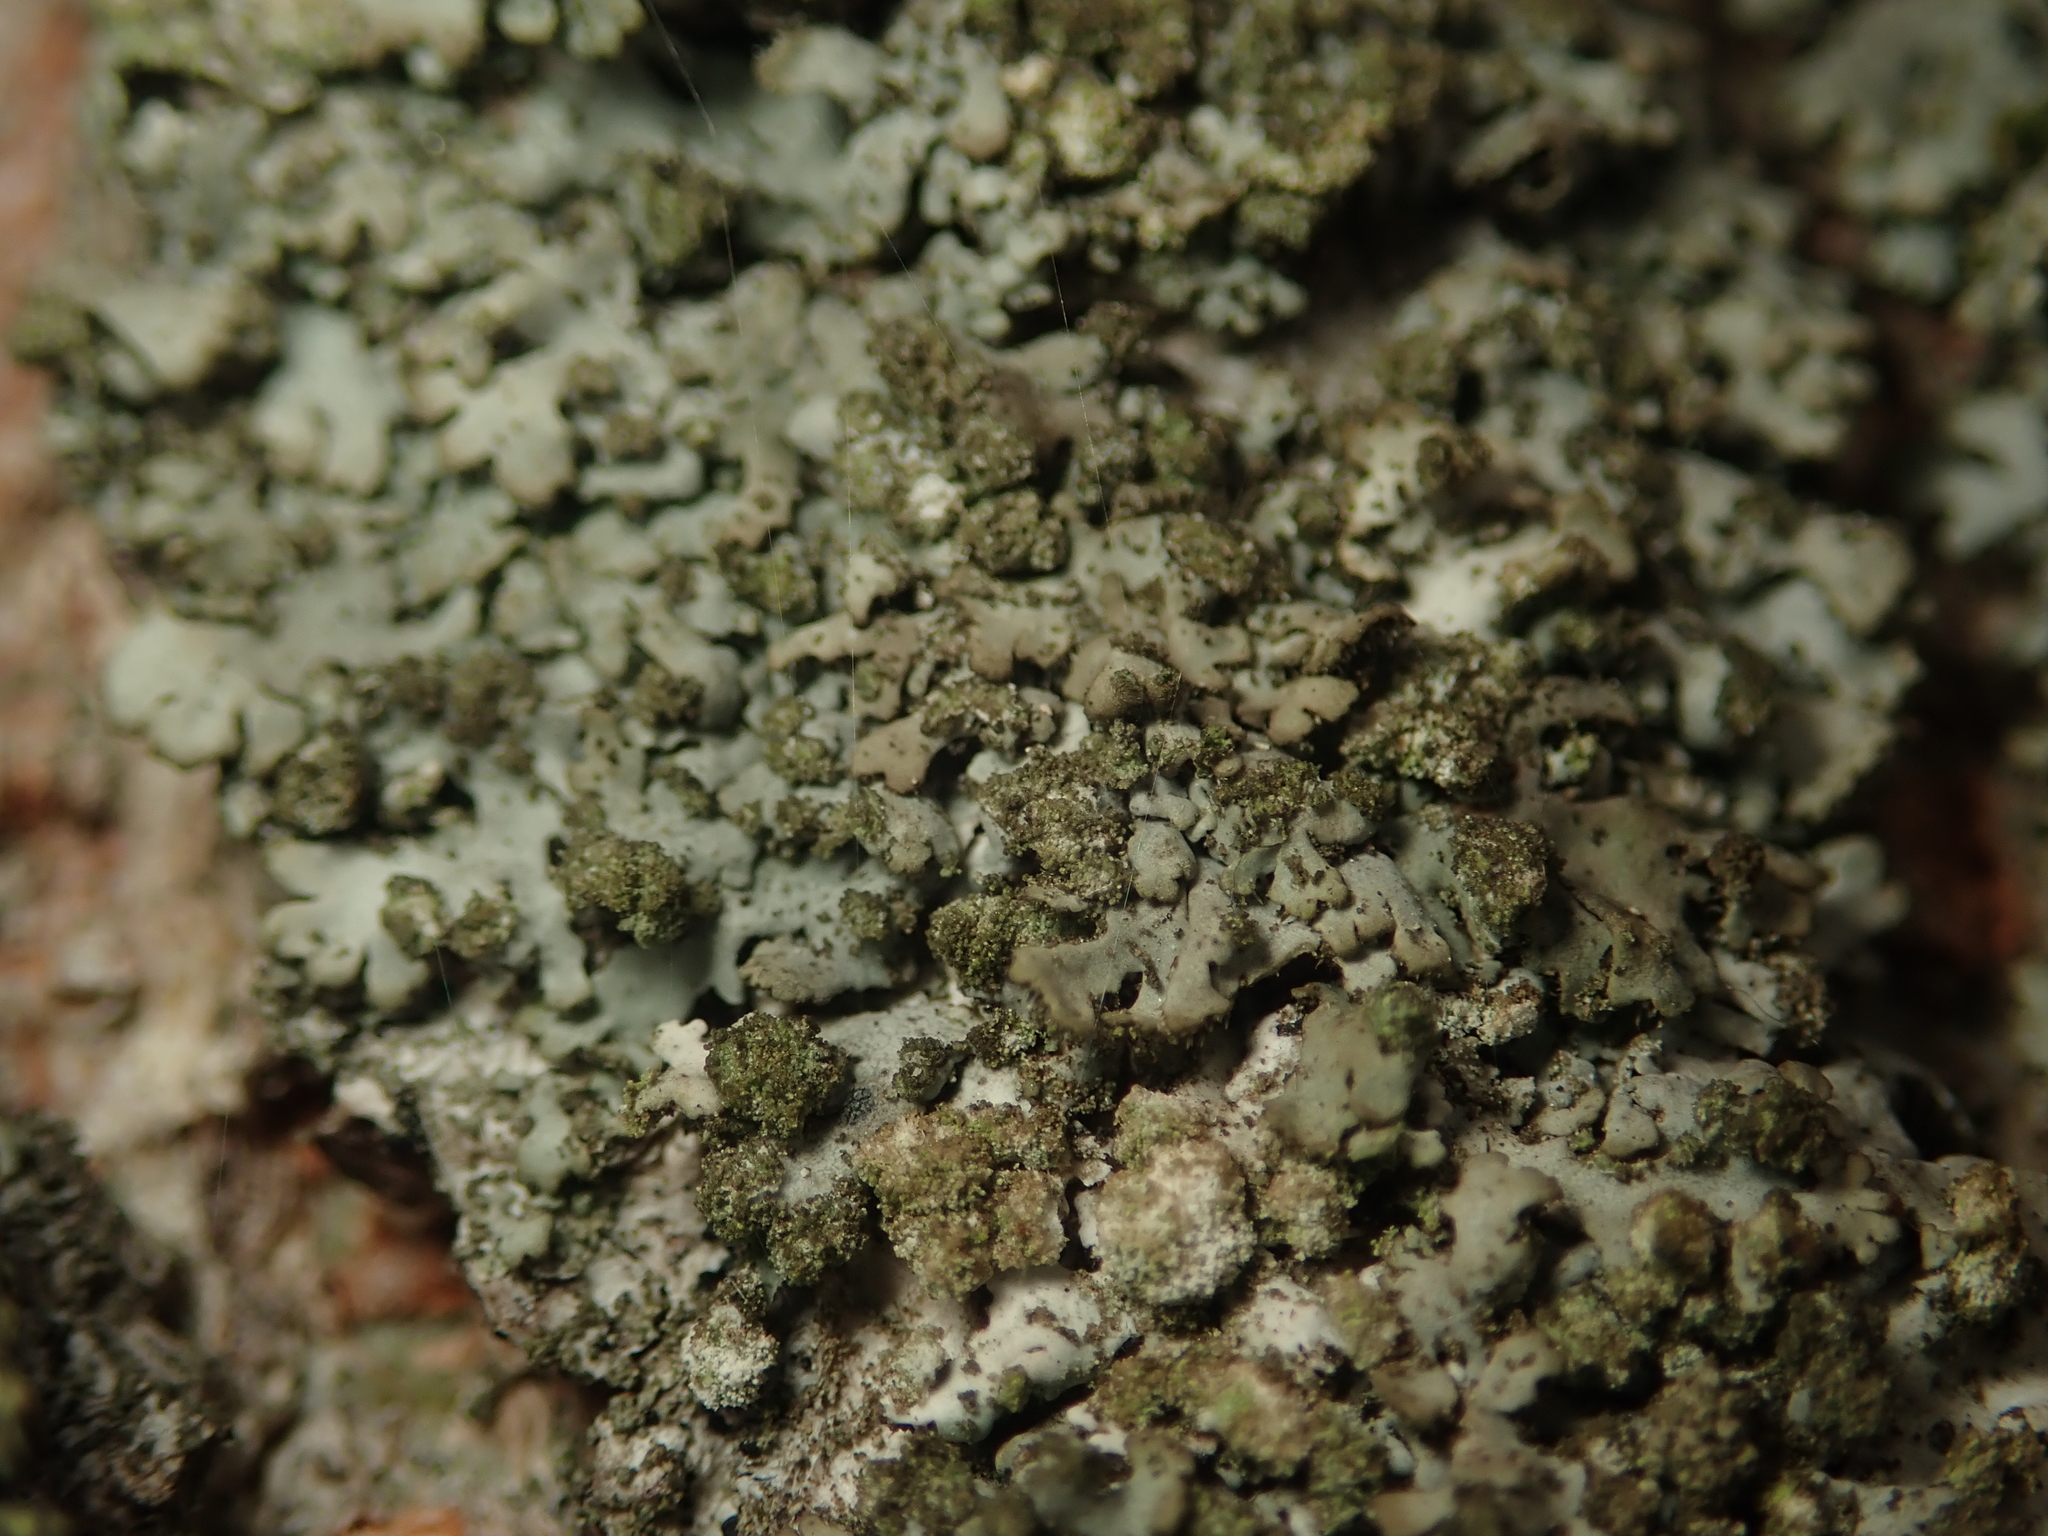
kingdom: Fungi
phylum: Ascomycota
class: Lecanoromycetes
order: Caliciales
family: Physciaceae
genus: Phaeophyscia
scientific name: Phaeophyscia orbicularis
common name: Mealy shadow lichen
